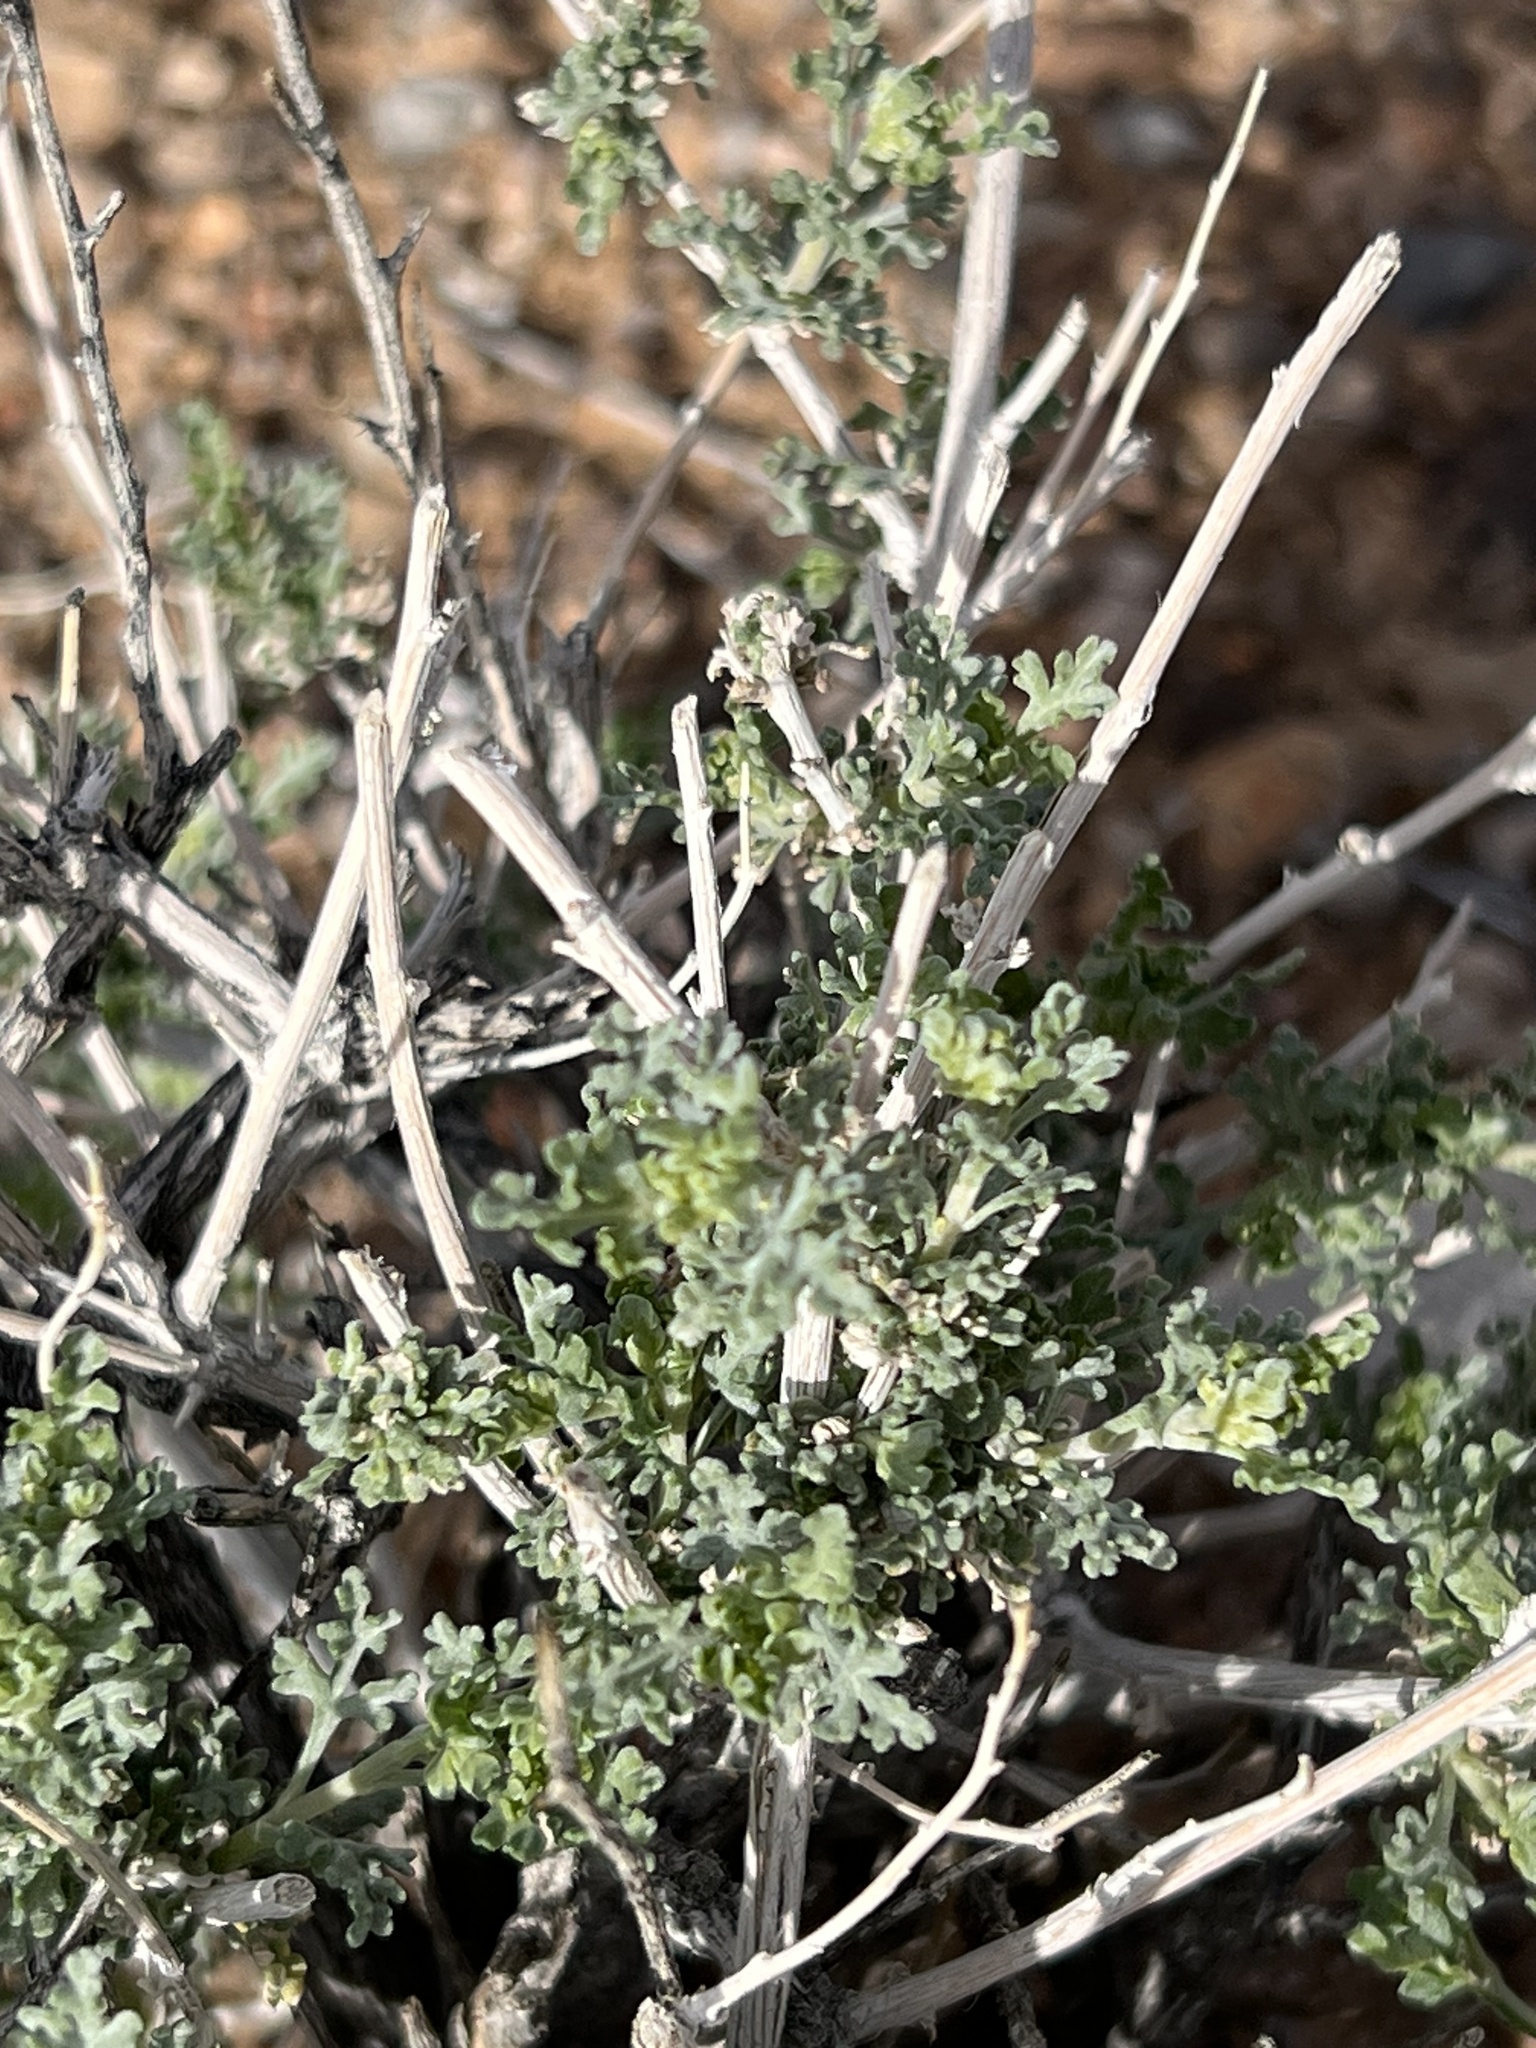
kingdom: Plantae
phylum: Tracheophyta
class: Magnoliopsida
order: Asterales
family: Asteraceae
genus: Ambrosia
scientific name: Ambrosia dumosa
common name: Bur-sage
